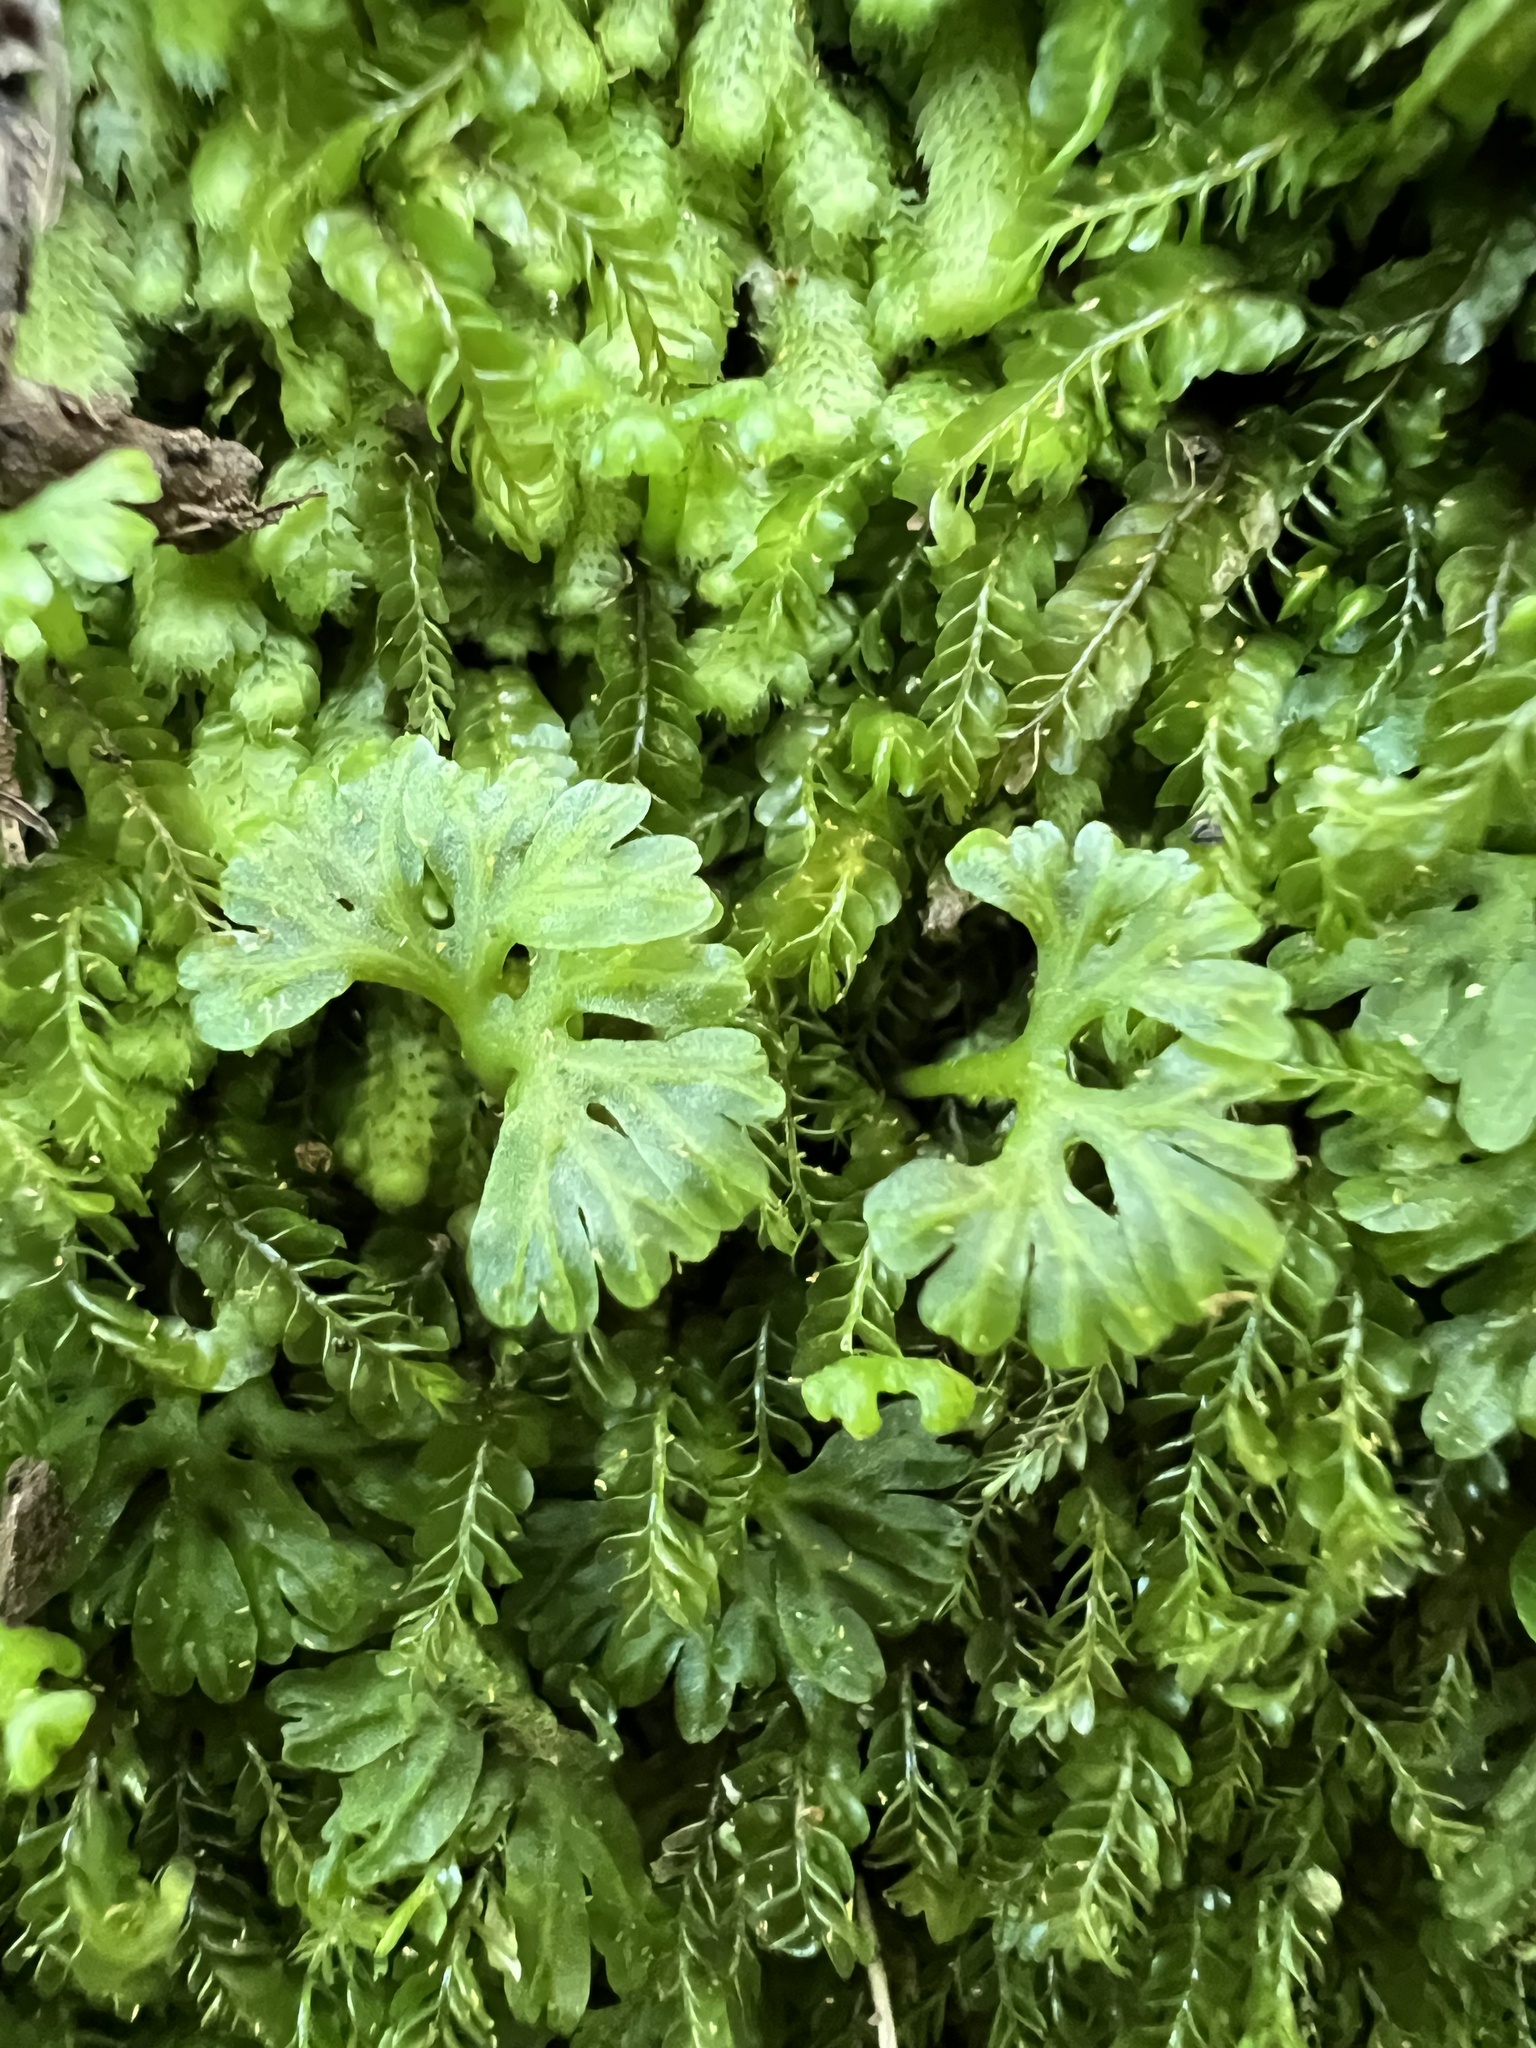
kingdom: Plantae
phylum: Marchantiophyta
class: Jungermanniopsida
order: Pallaviciniales
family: Hymenophytaceae
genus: Hymenophyton
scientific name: Hymenophyton flabellatum
